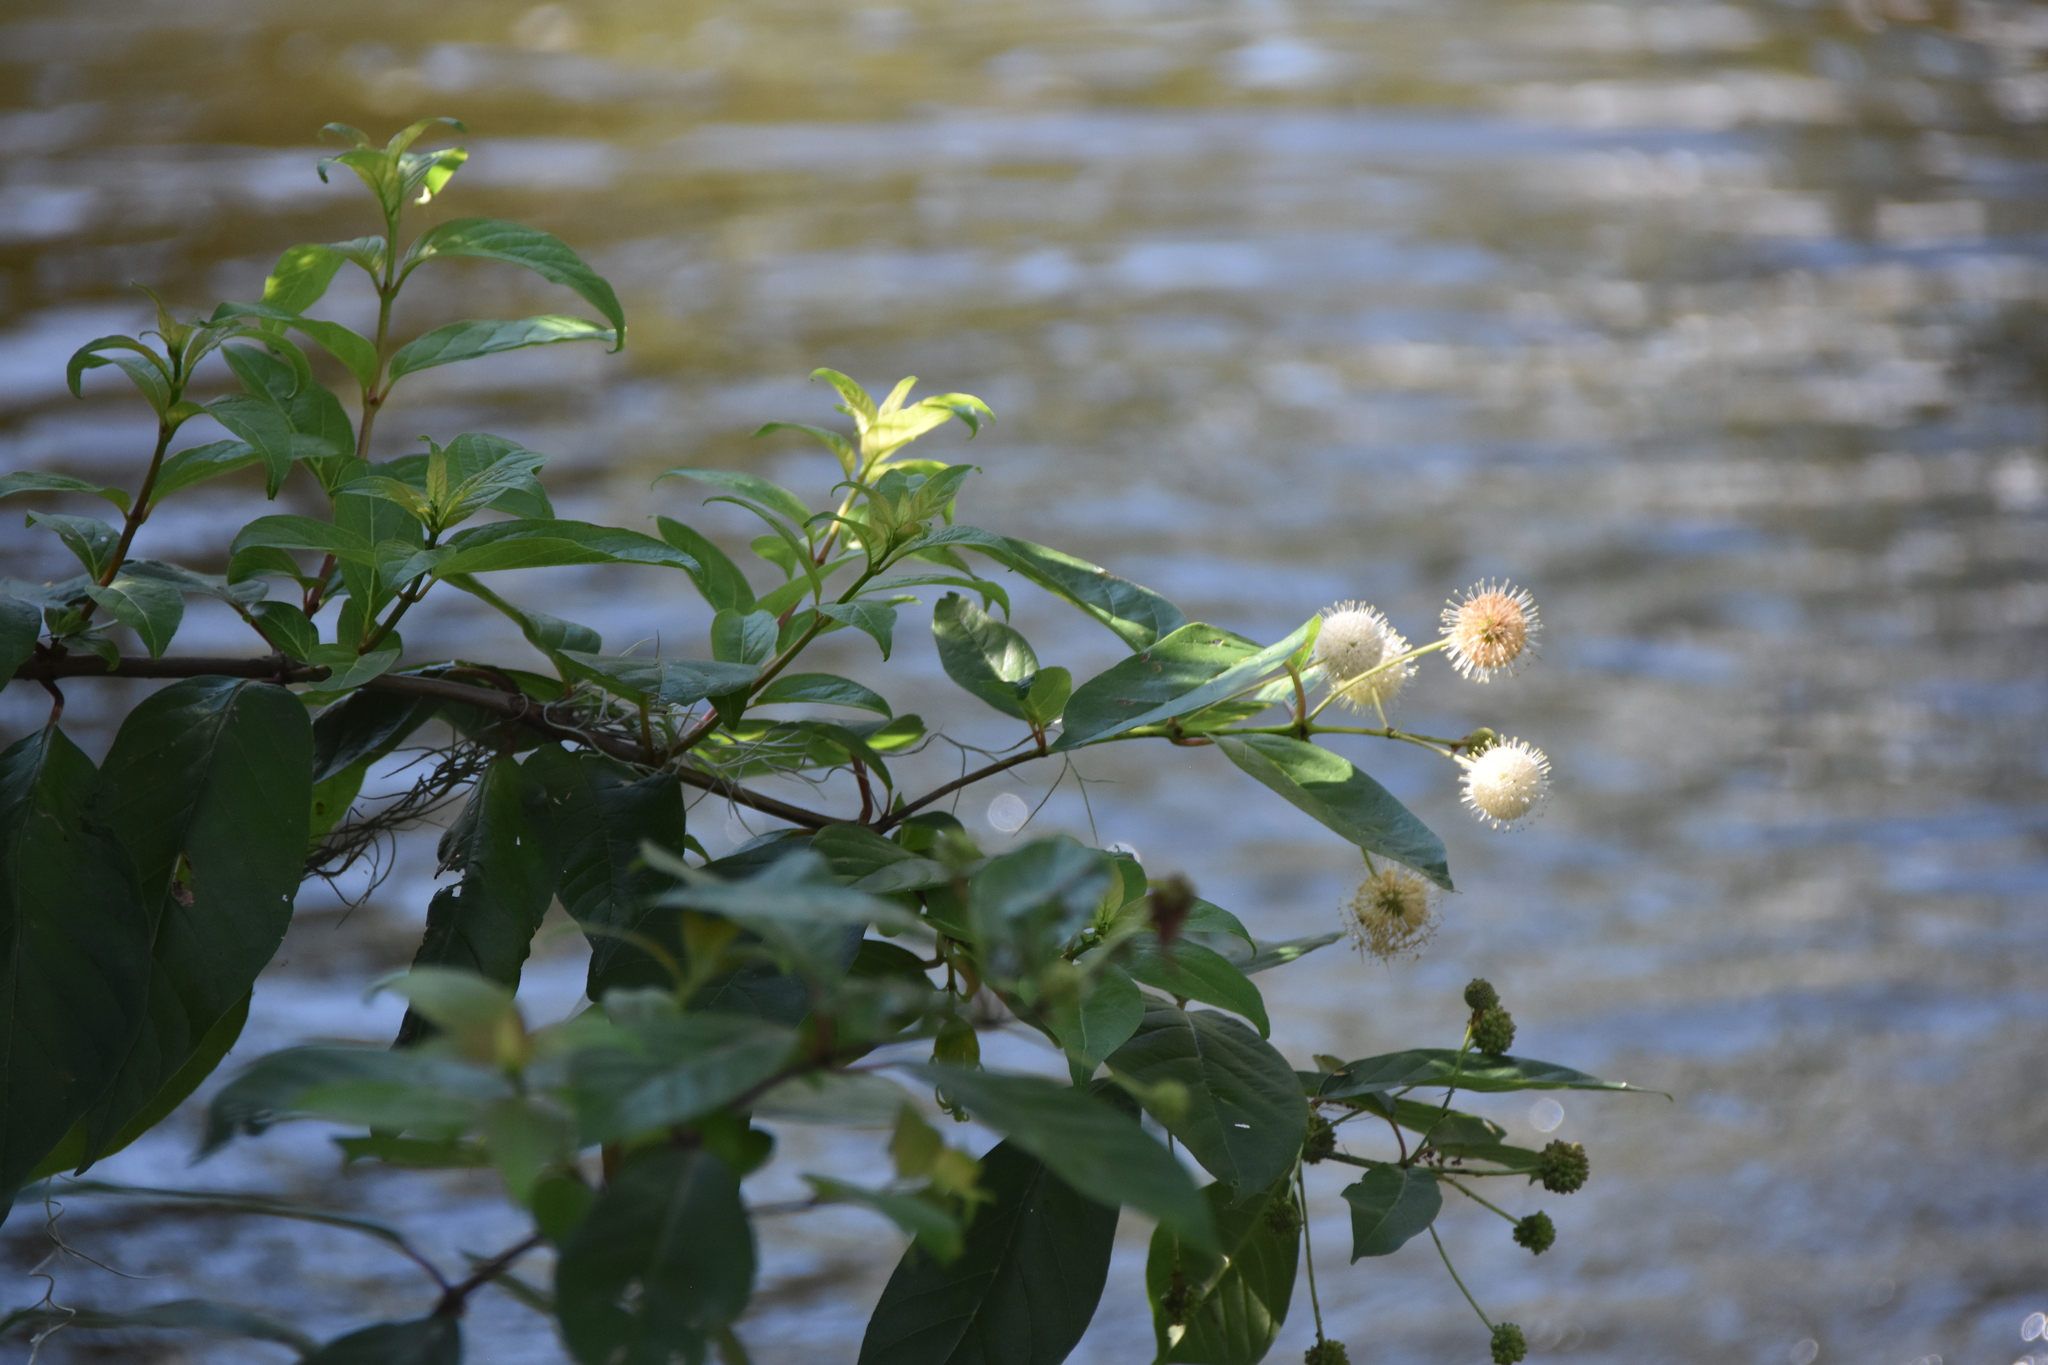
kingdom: Plantae
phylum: Tracheophyta
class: Magnoliopsida
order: Gentianales
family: Rubiaceae
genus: Cephalanthus
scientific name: Cephalanthus occidentalis
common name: Button-willow
